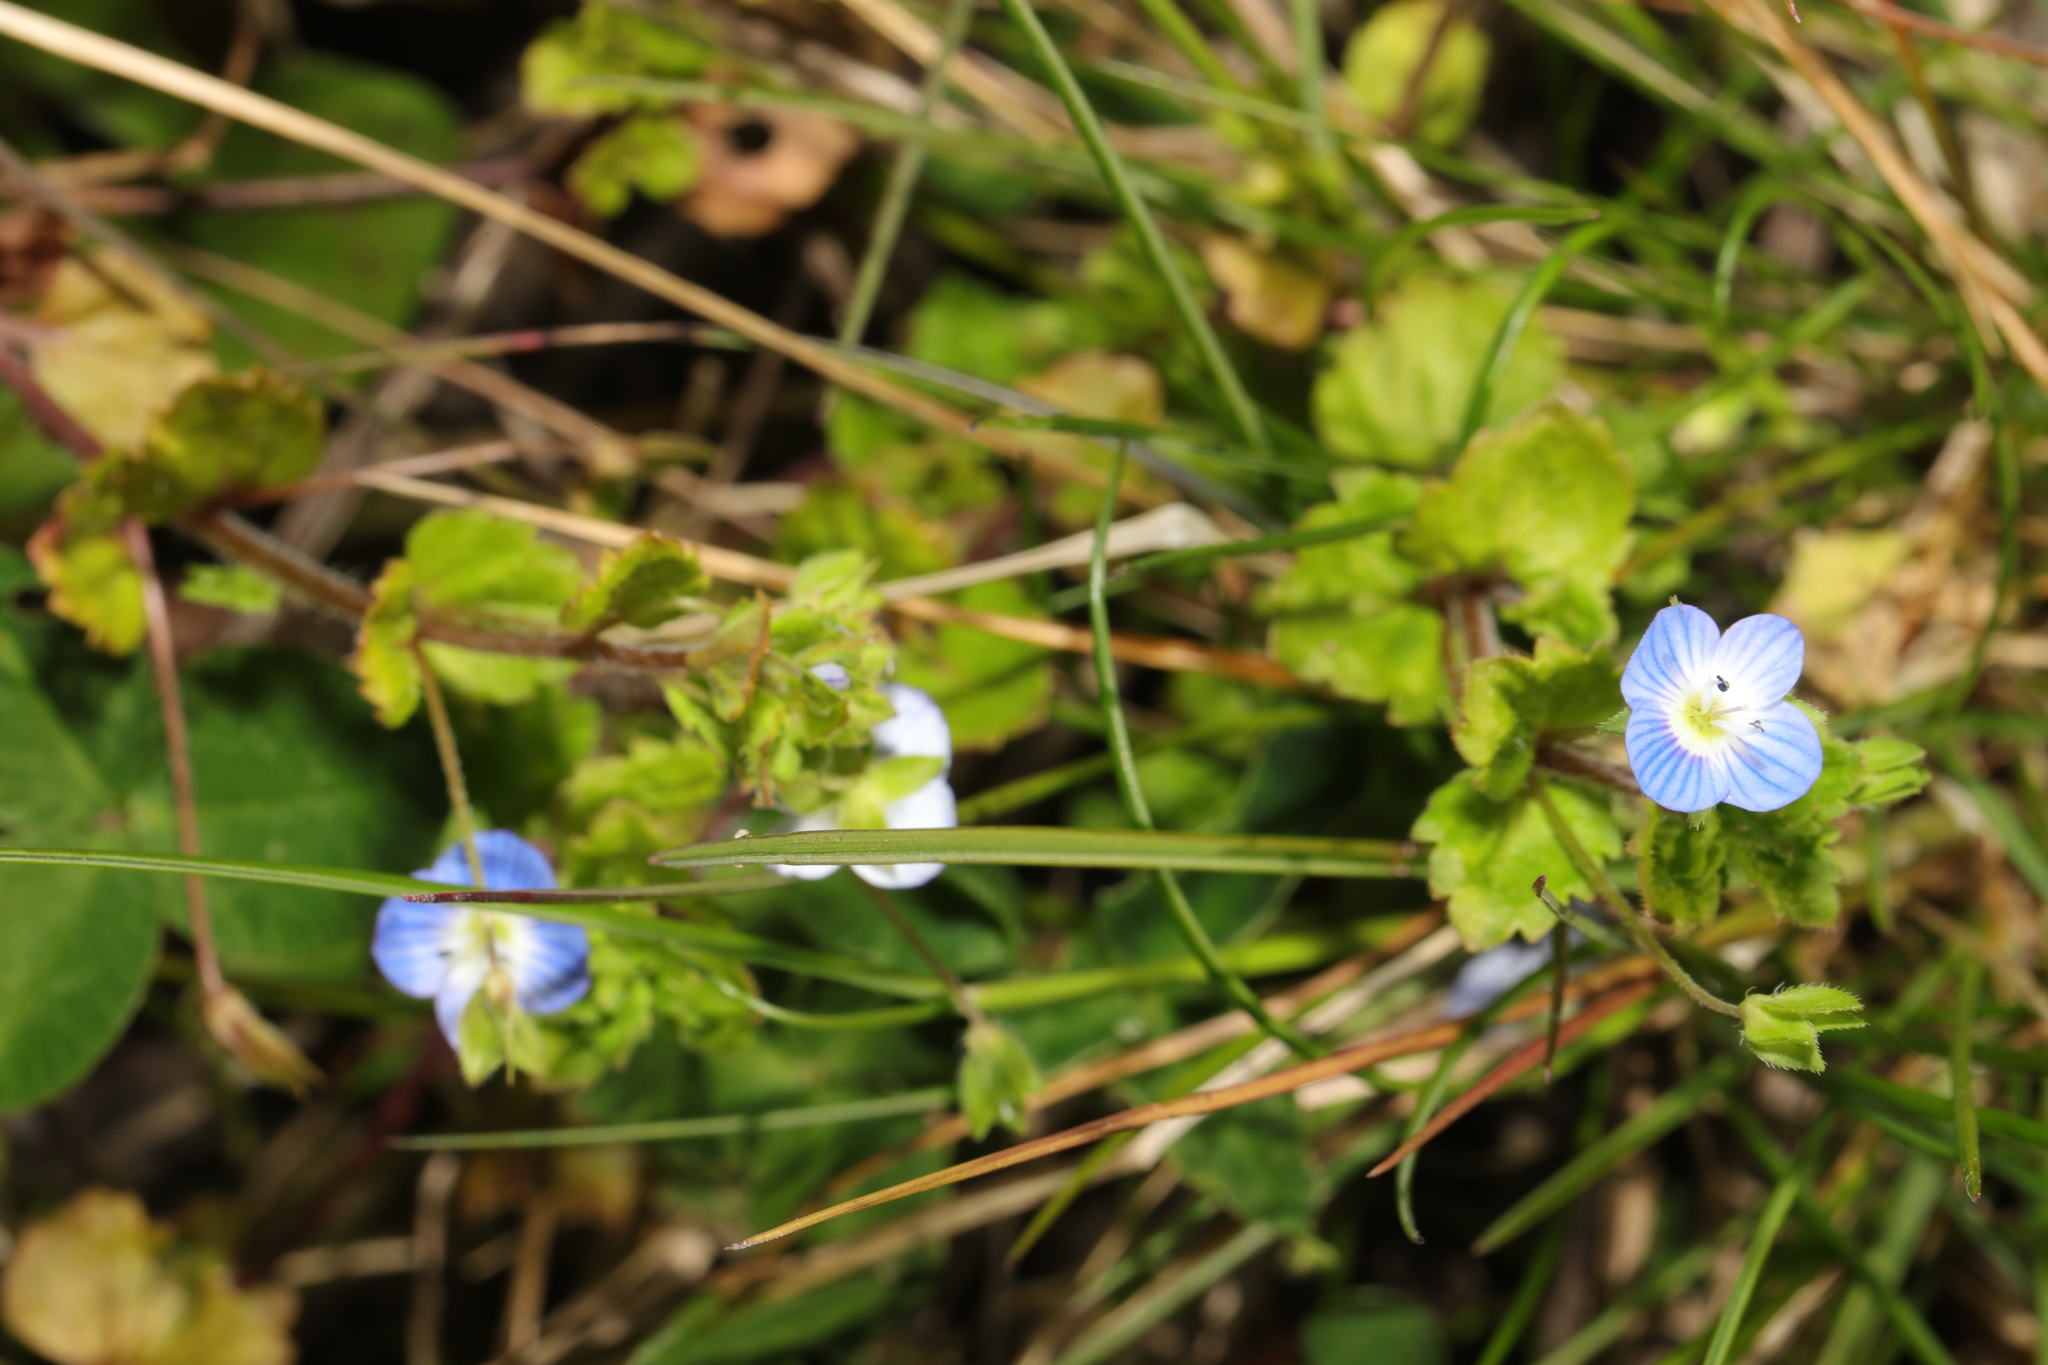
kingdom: Plantae
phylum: Tracheophyta
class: Magnoliopsida
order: Lamiales
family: Plantaginaceae
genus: Veronica
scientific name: Veronica persica
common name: Common field-speedwell
